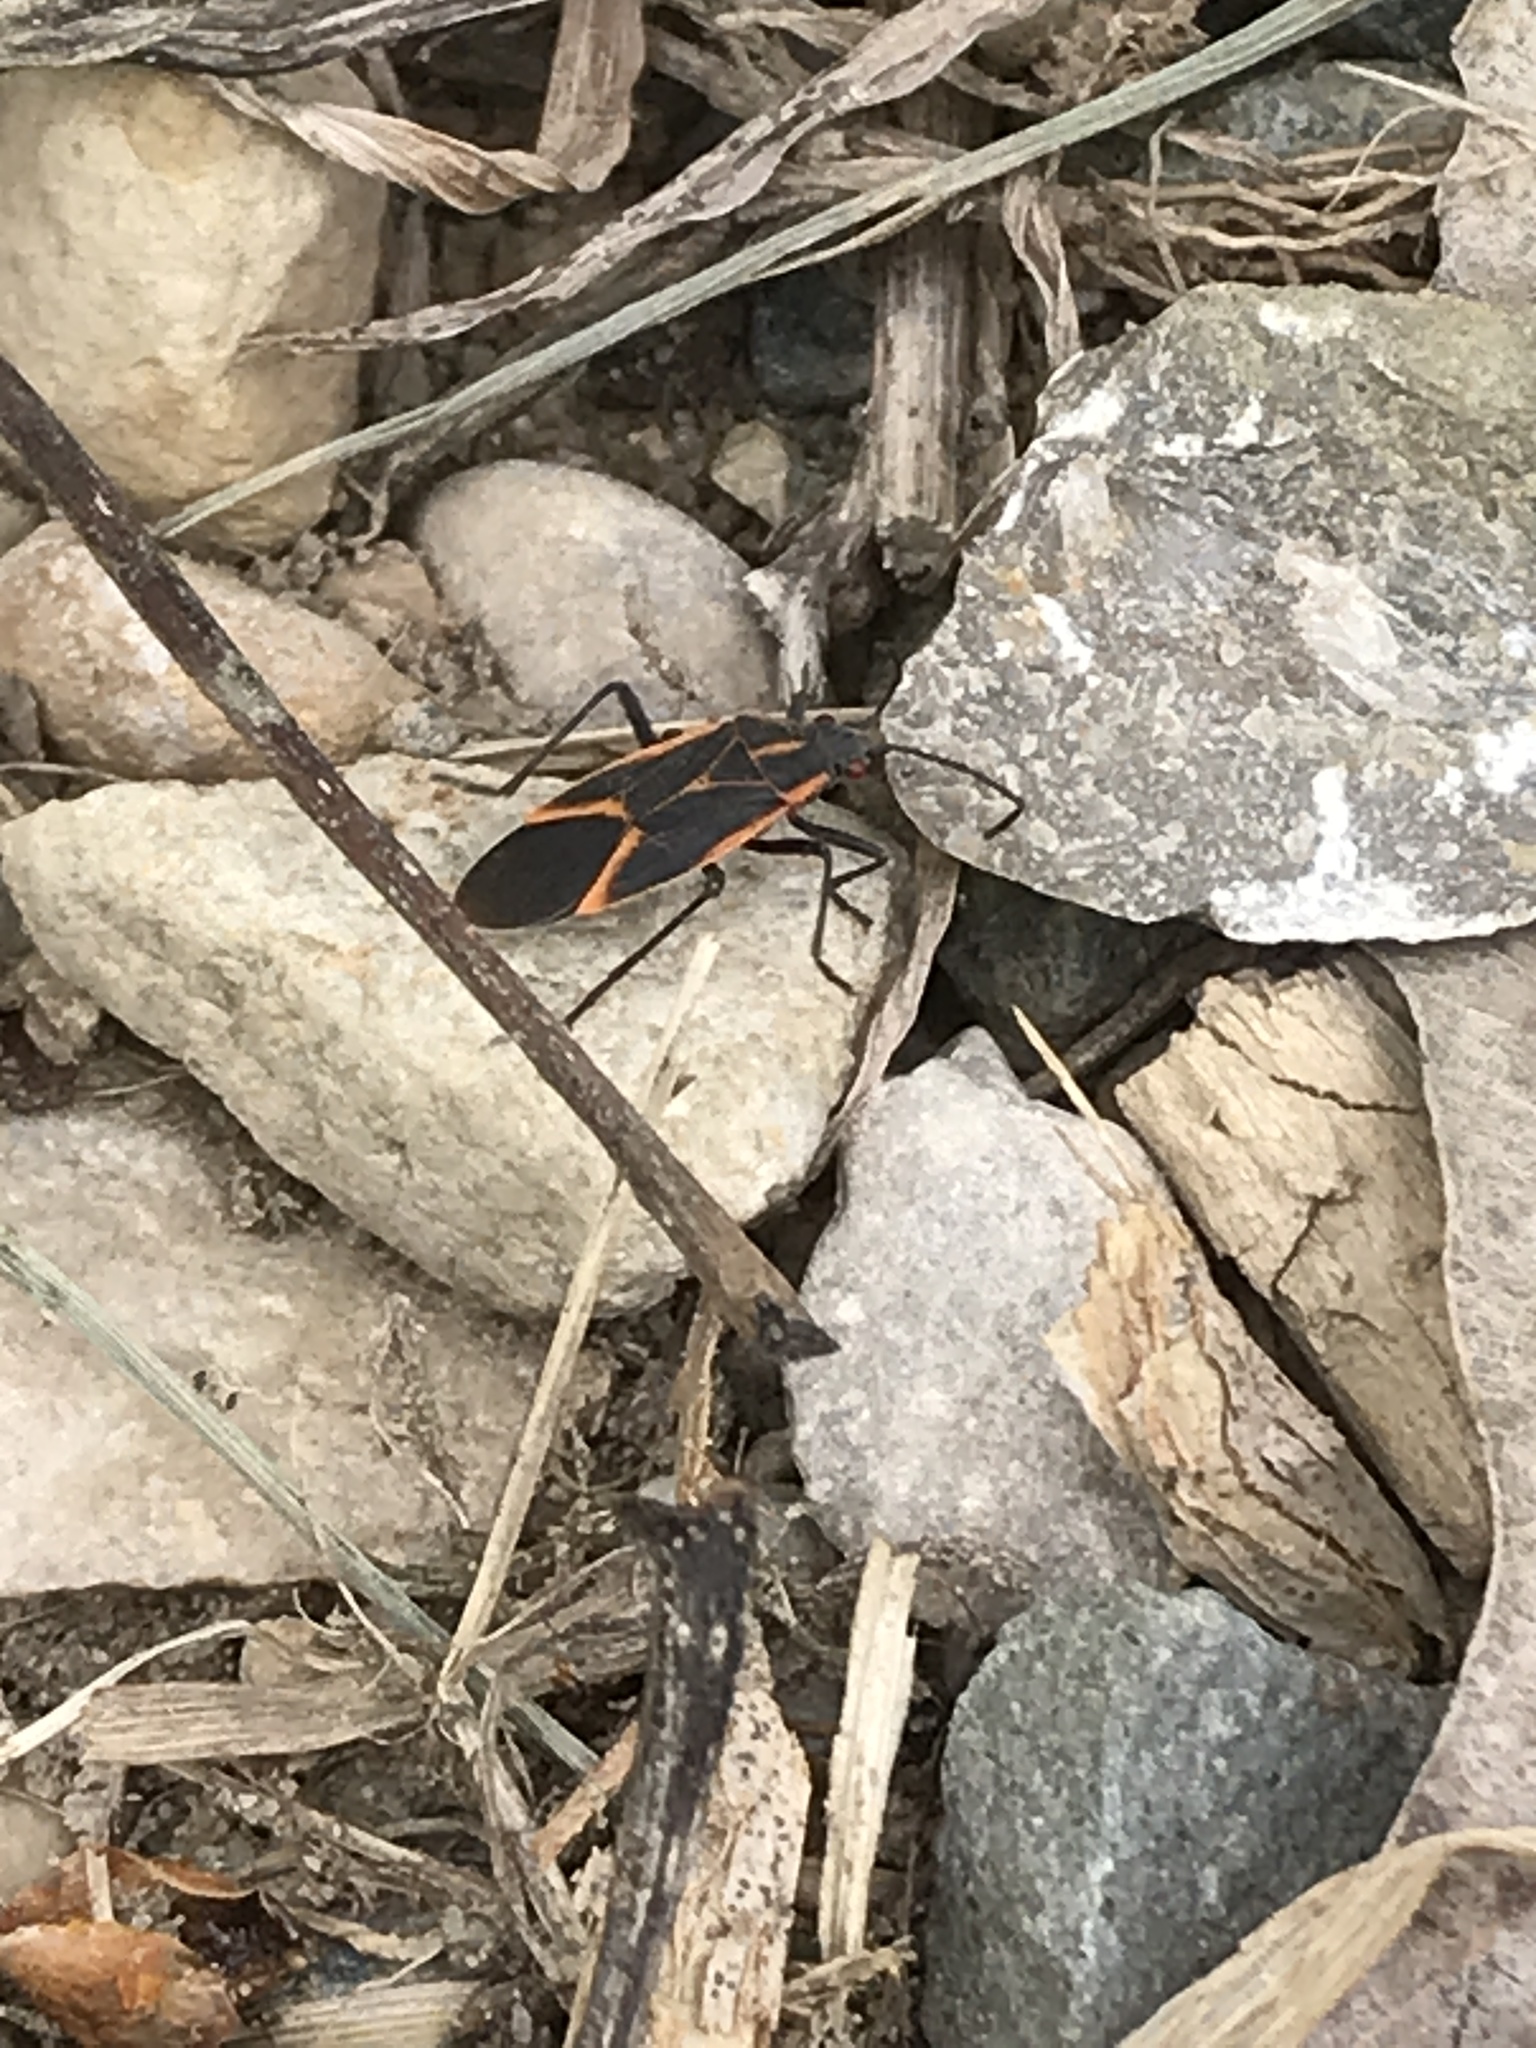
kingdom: Animalia
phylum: Arthropoda
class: Insecta
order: Hemiptera
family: Rhopalidae
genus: Boisea
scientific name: Boisea trivittata
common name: Boxelder bug
